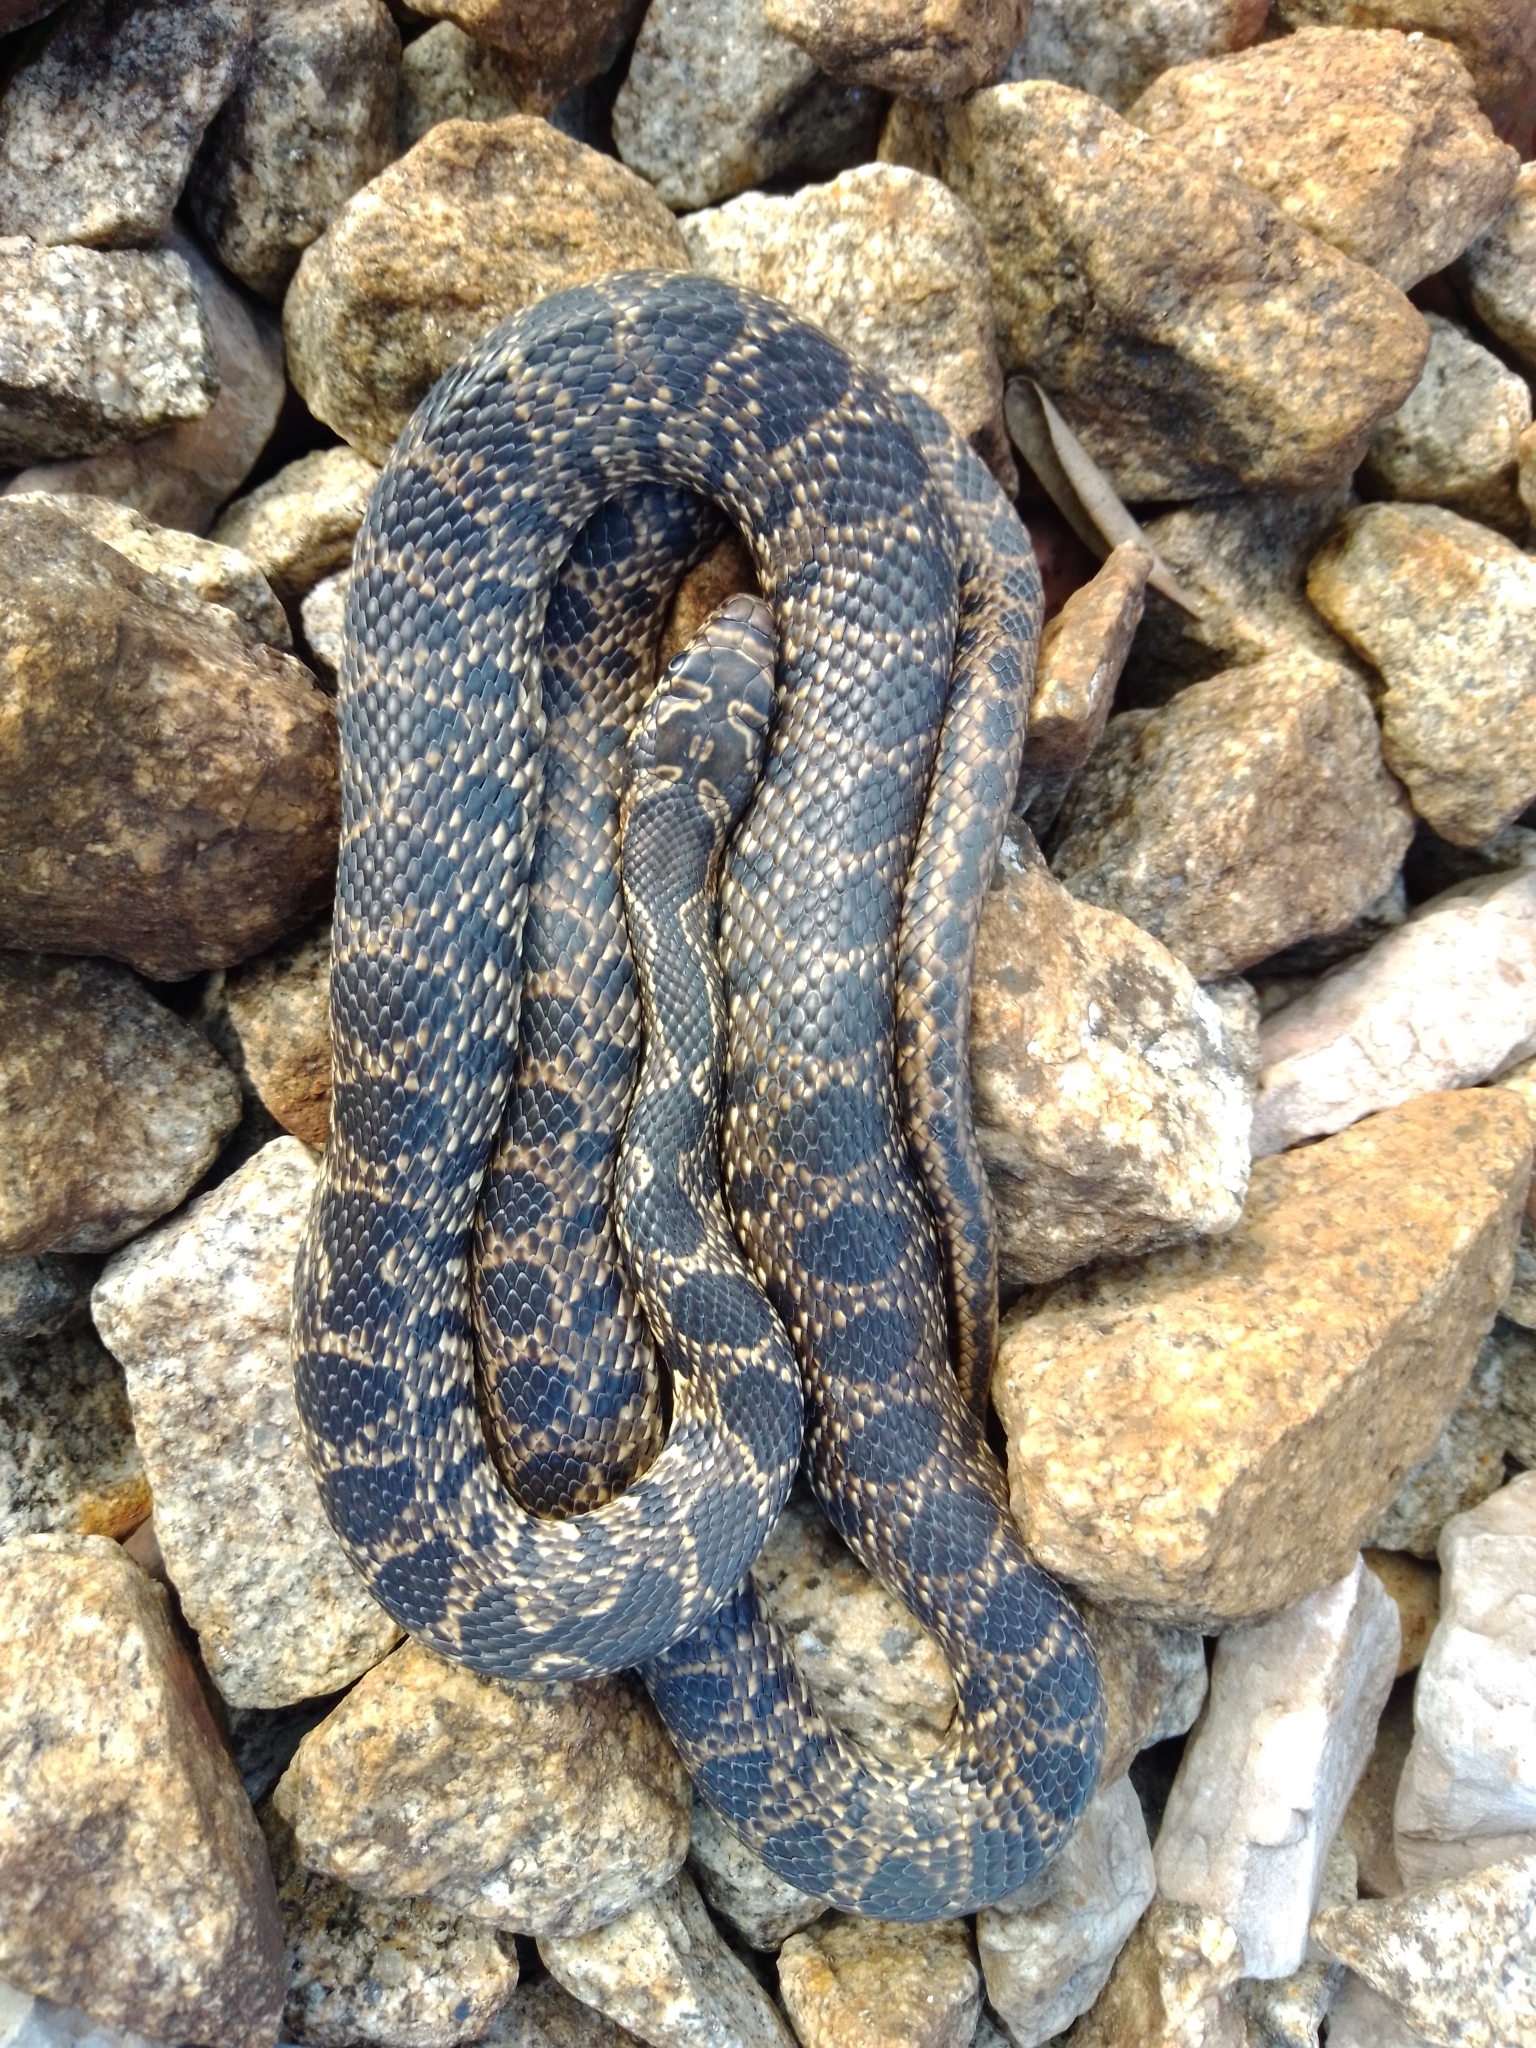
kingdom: Animalia
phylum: Chordata
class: Squamata
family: Colubridae
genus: Hemorrhois
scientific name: Hemorrhois hippocrepis
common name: Horseshoe whip snake
